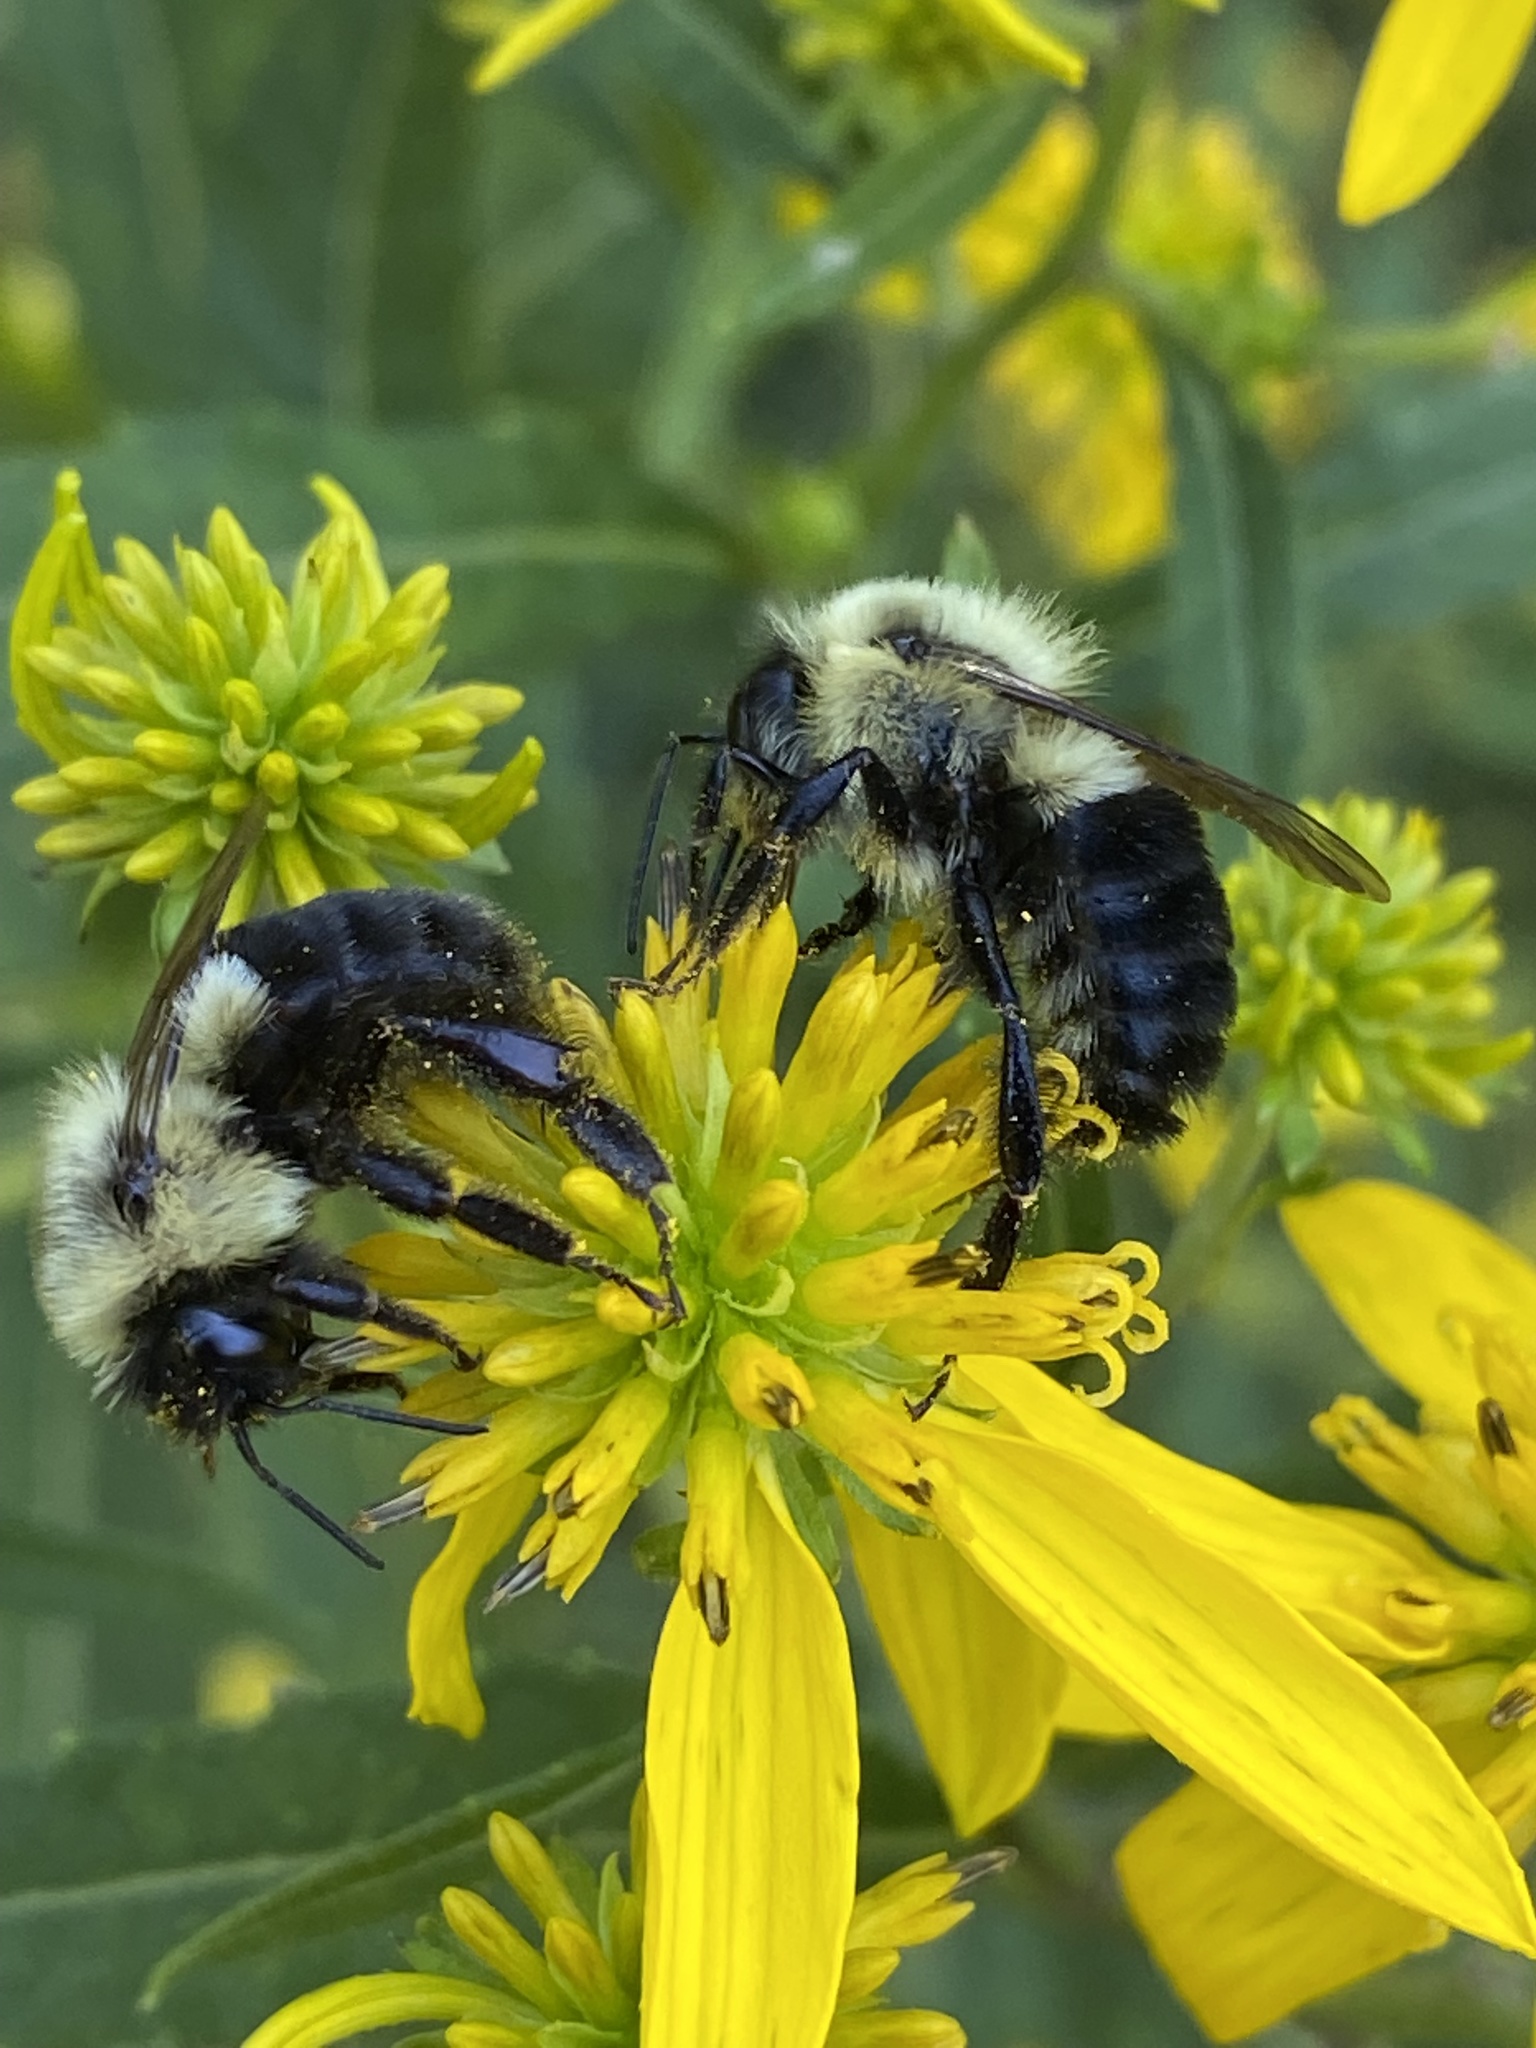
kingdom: Animalia
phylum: Arthropoda
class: Insecta
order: Hymenoptera
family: Apidae
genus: Bombus
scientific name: Bombus impatiens
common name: Common eastern bumble bee
